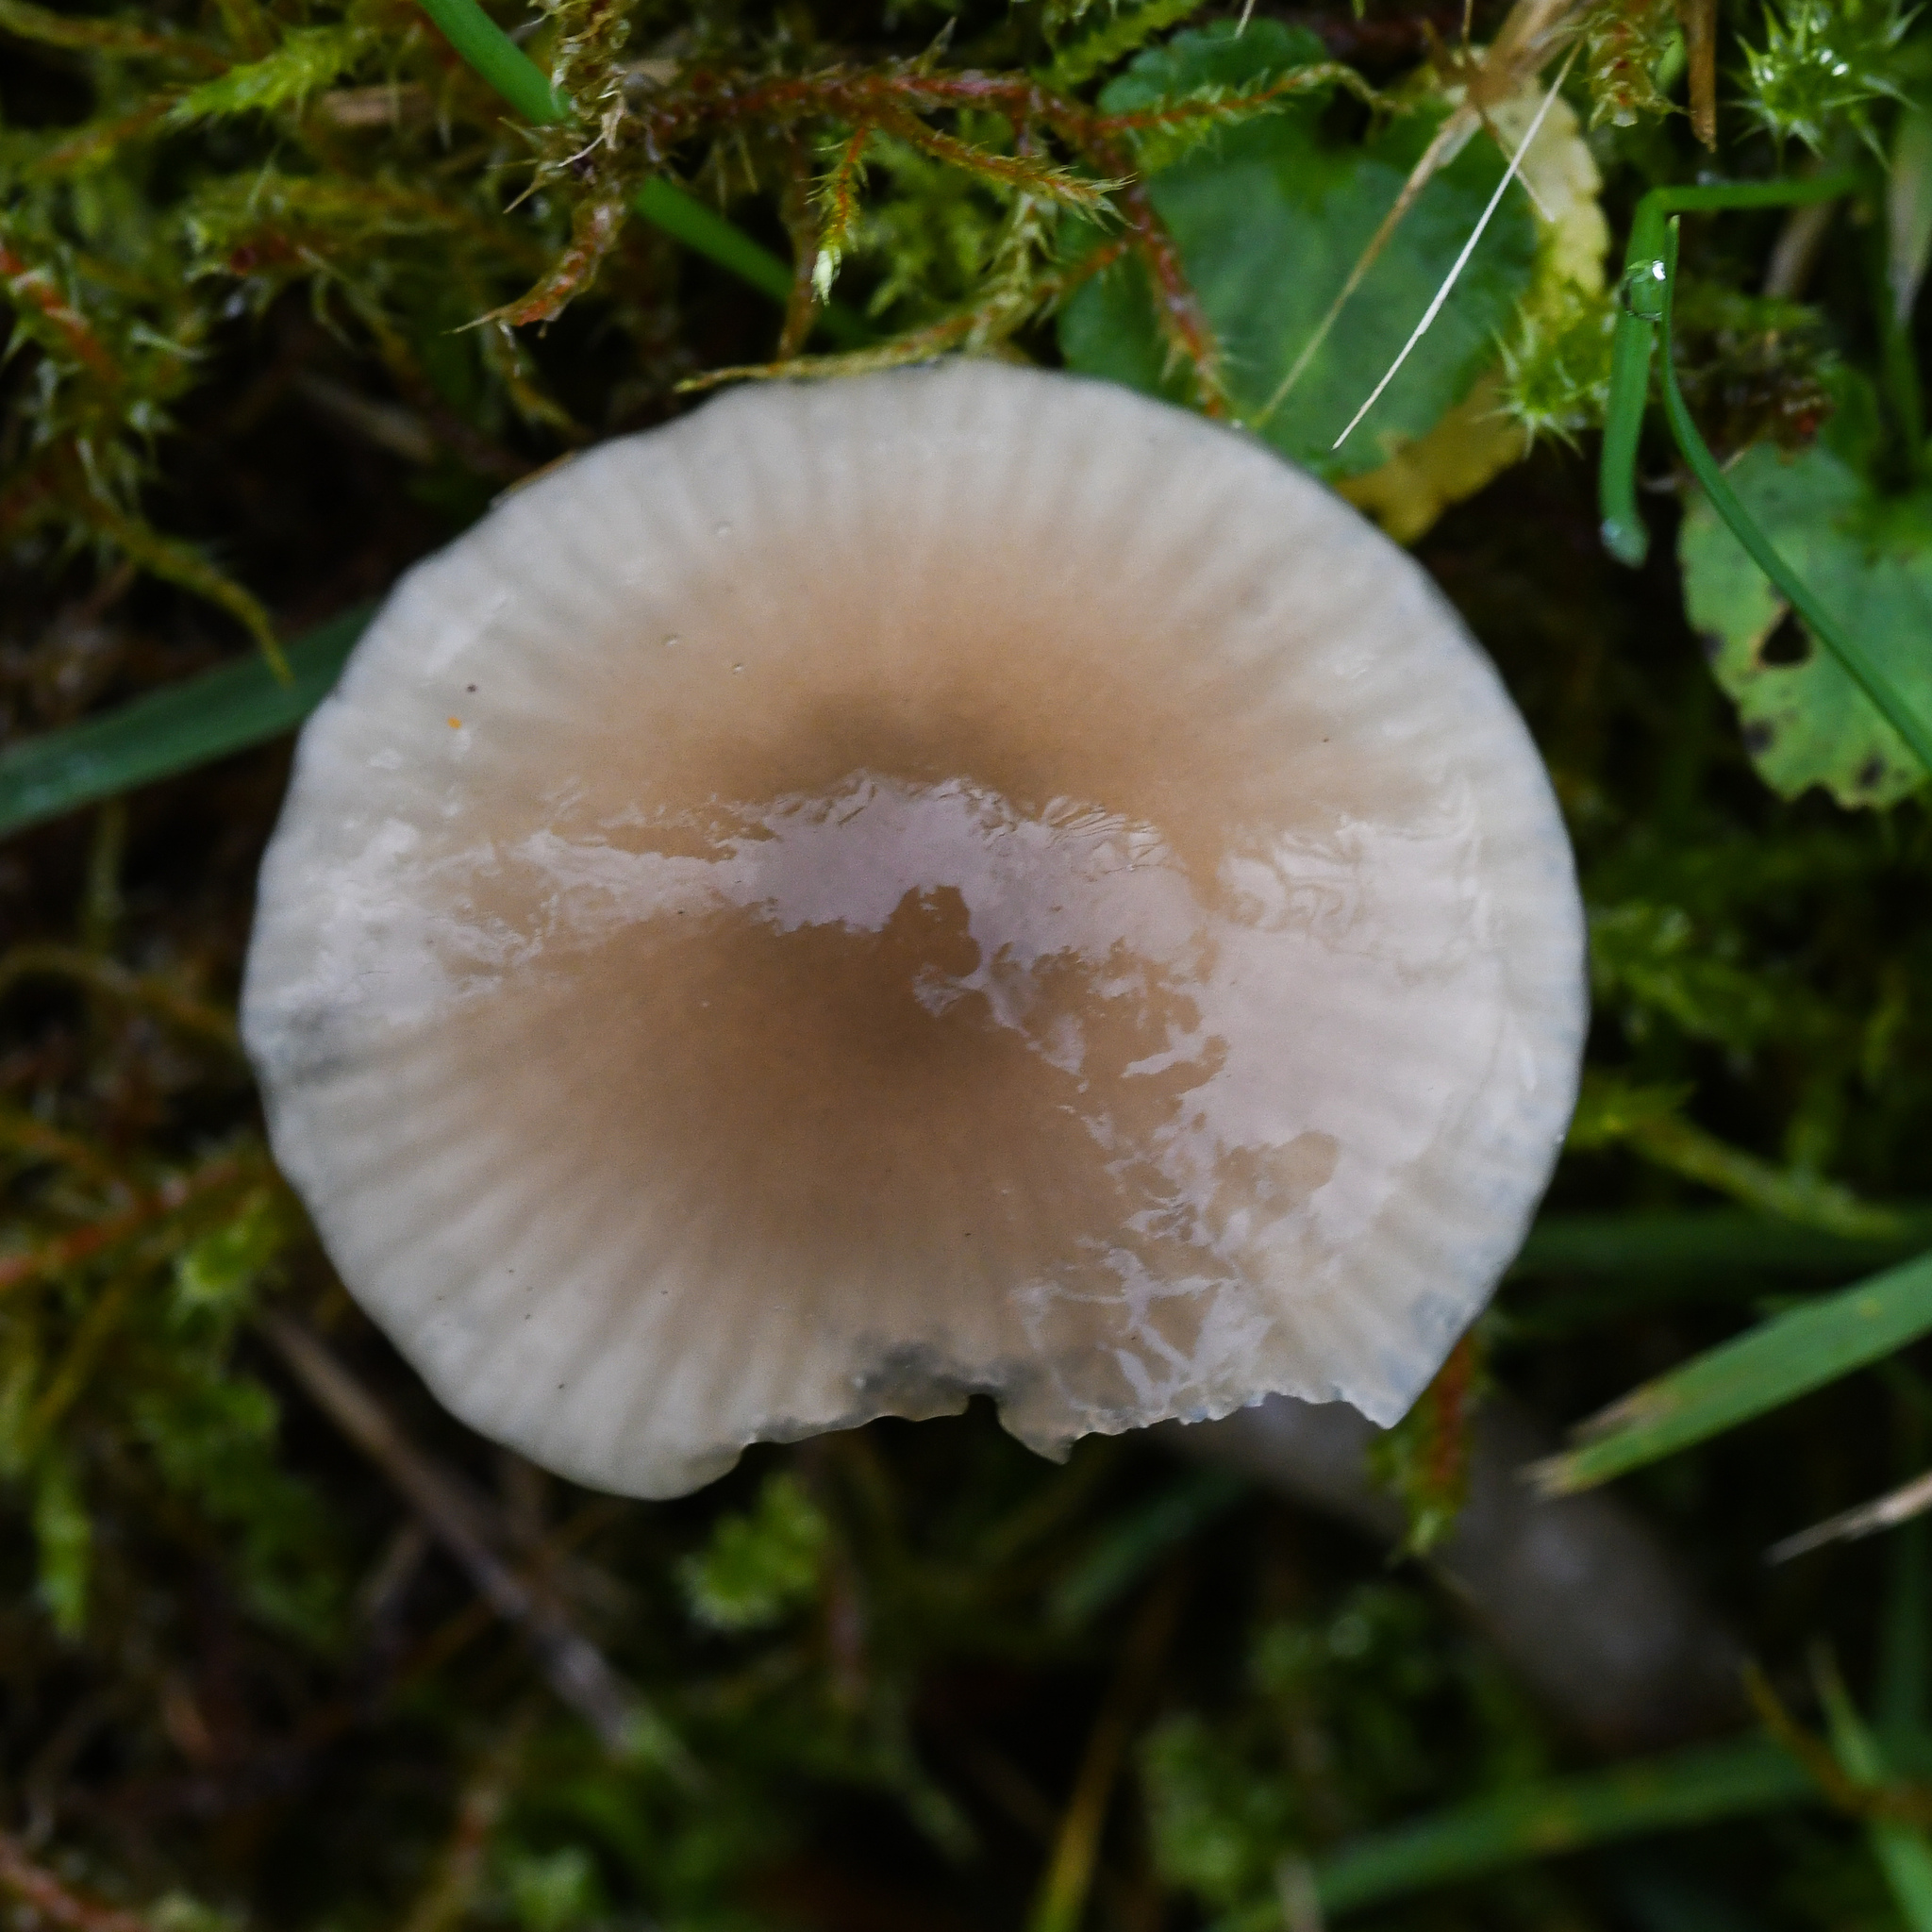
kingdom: Fungi
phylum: Basidiomycota
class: Agaricomycetes
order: Agaricales
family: Hygrophoraceae
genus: Gliophorus
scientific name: Gliophorus irrigatus
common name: Slimy waxcap
